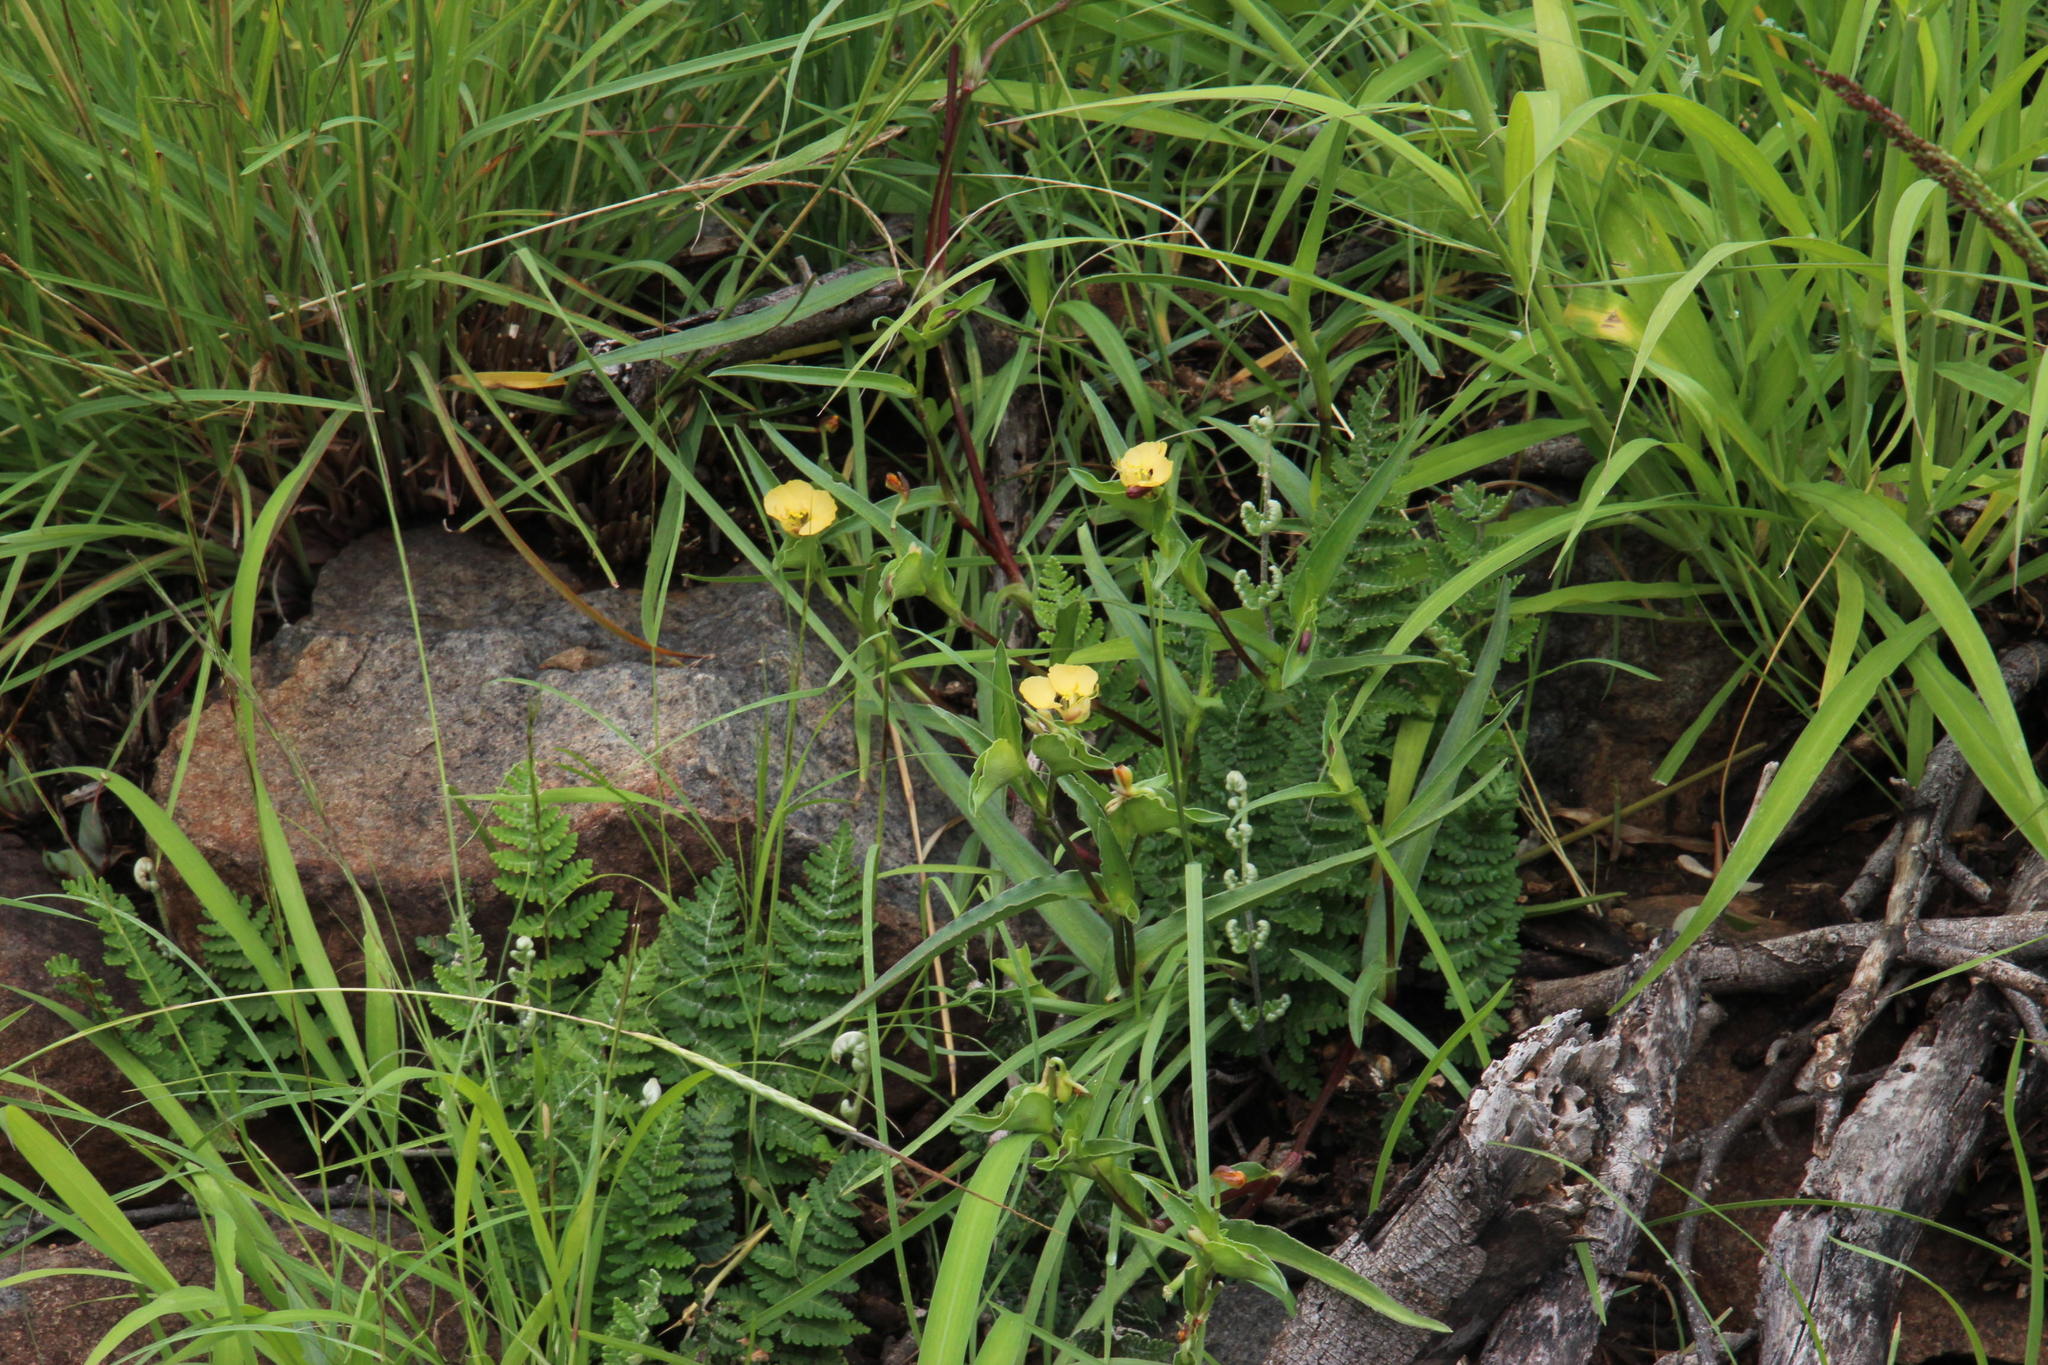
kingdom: Plantae
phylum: Tracheophyta
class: Liliopsida
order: Commelinales
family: Commelinaceae
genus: Commelina
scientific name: Commelina africana
